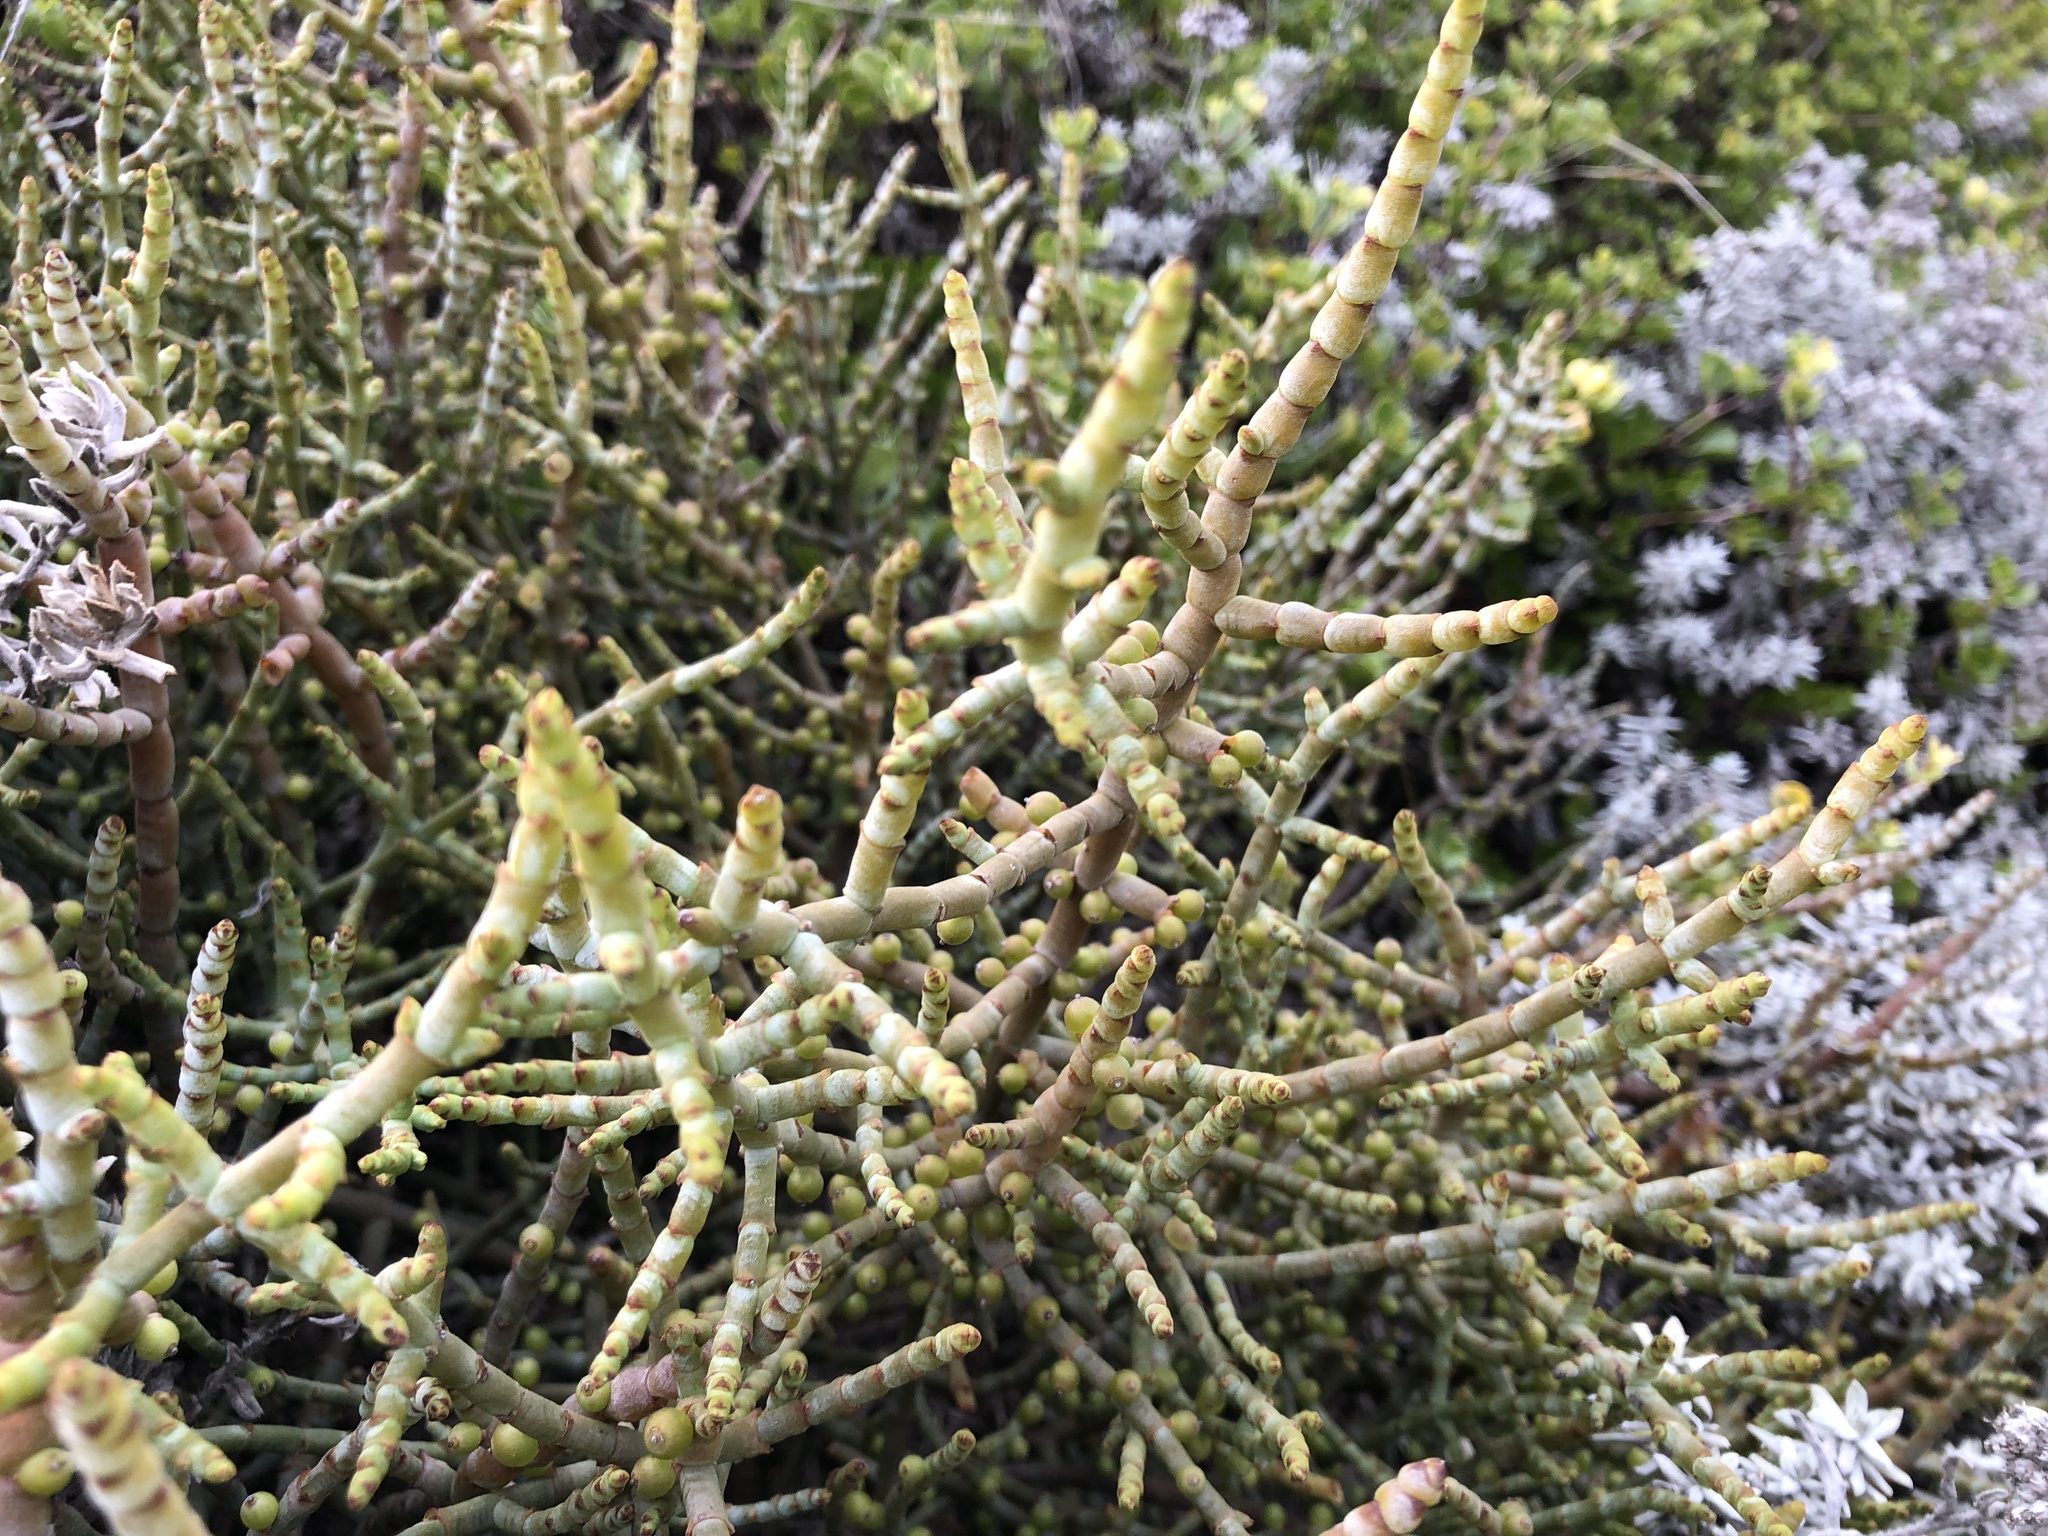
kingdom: Plantae
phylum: Tracheophyta
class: Magnoliopsida
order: Santalales
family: Viscaceae
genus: Viscum
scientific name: Viscum capense
